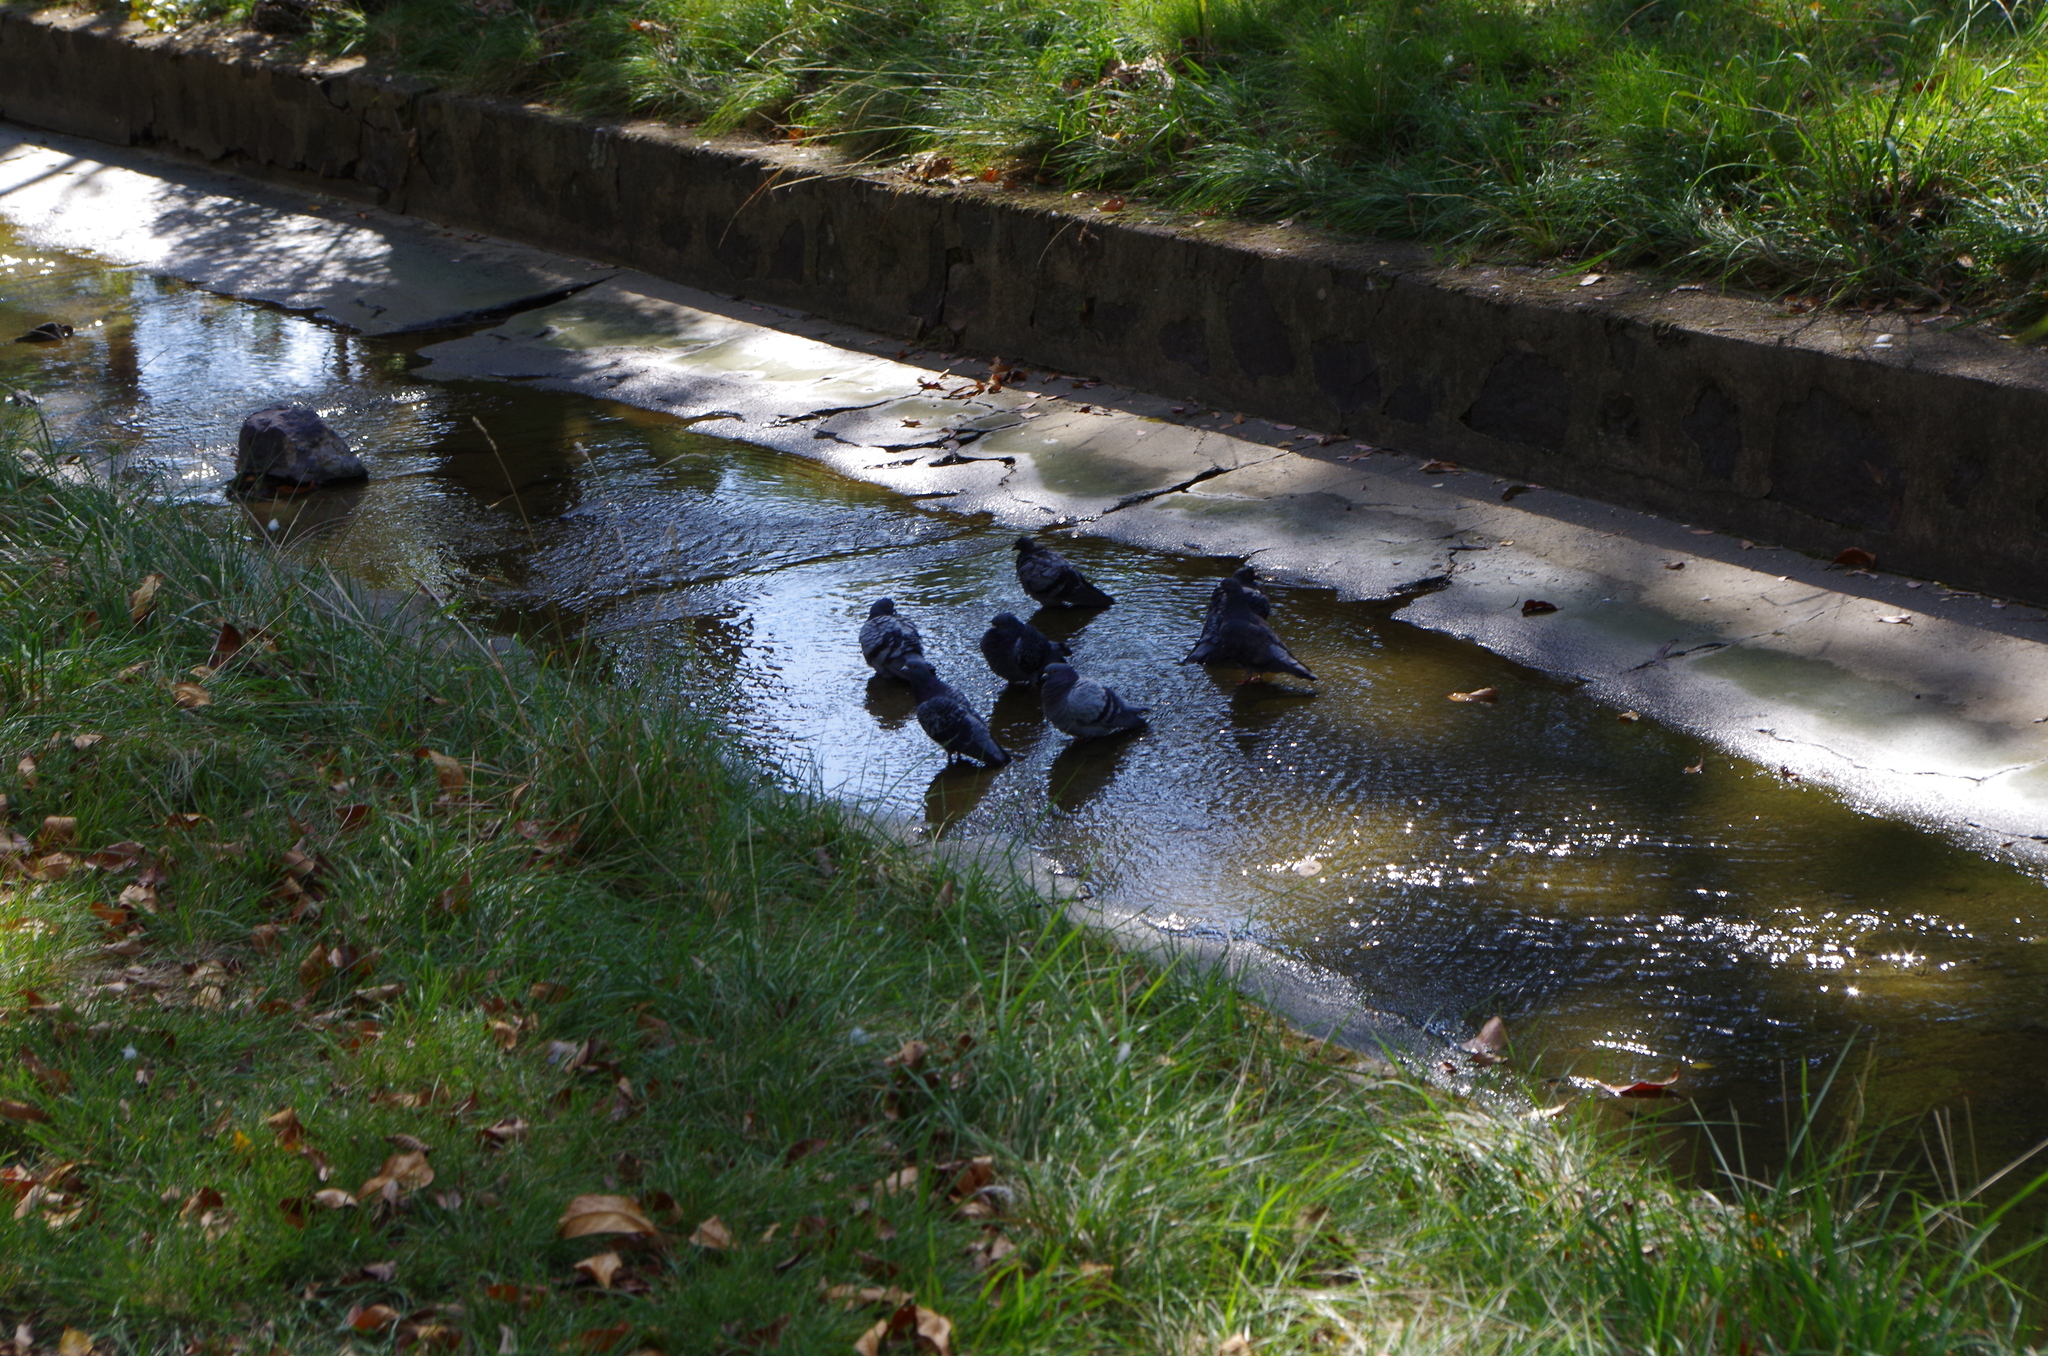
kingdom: Animalia
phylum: Chordata
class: Aves
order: Columbiformes
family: Columbidae
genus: Columba
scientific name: Columba livia
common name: Rock pigeon
